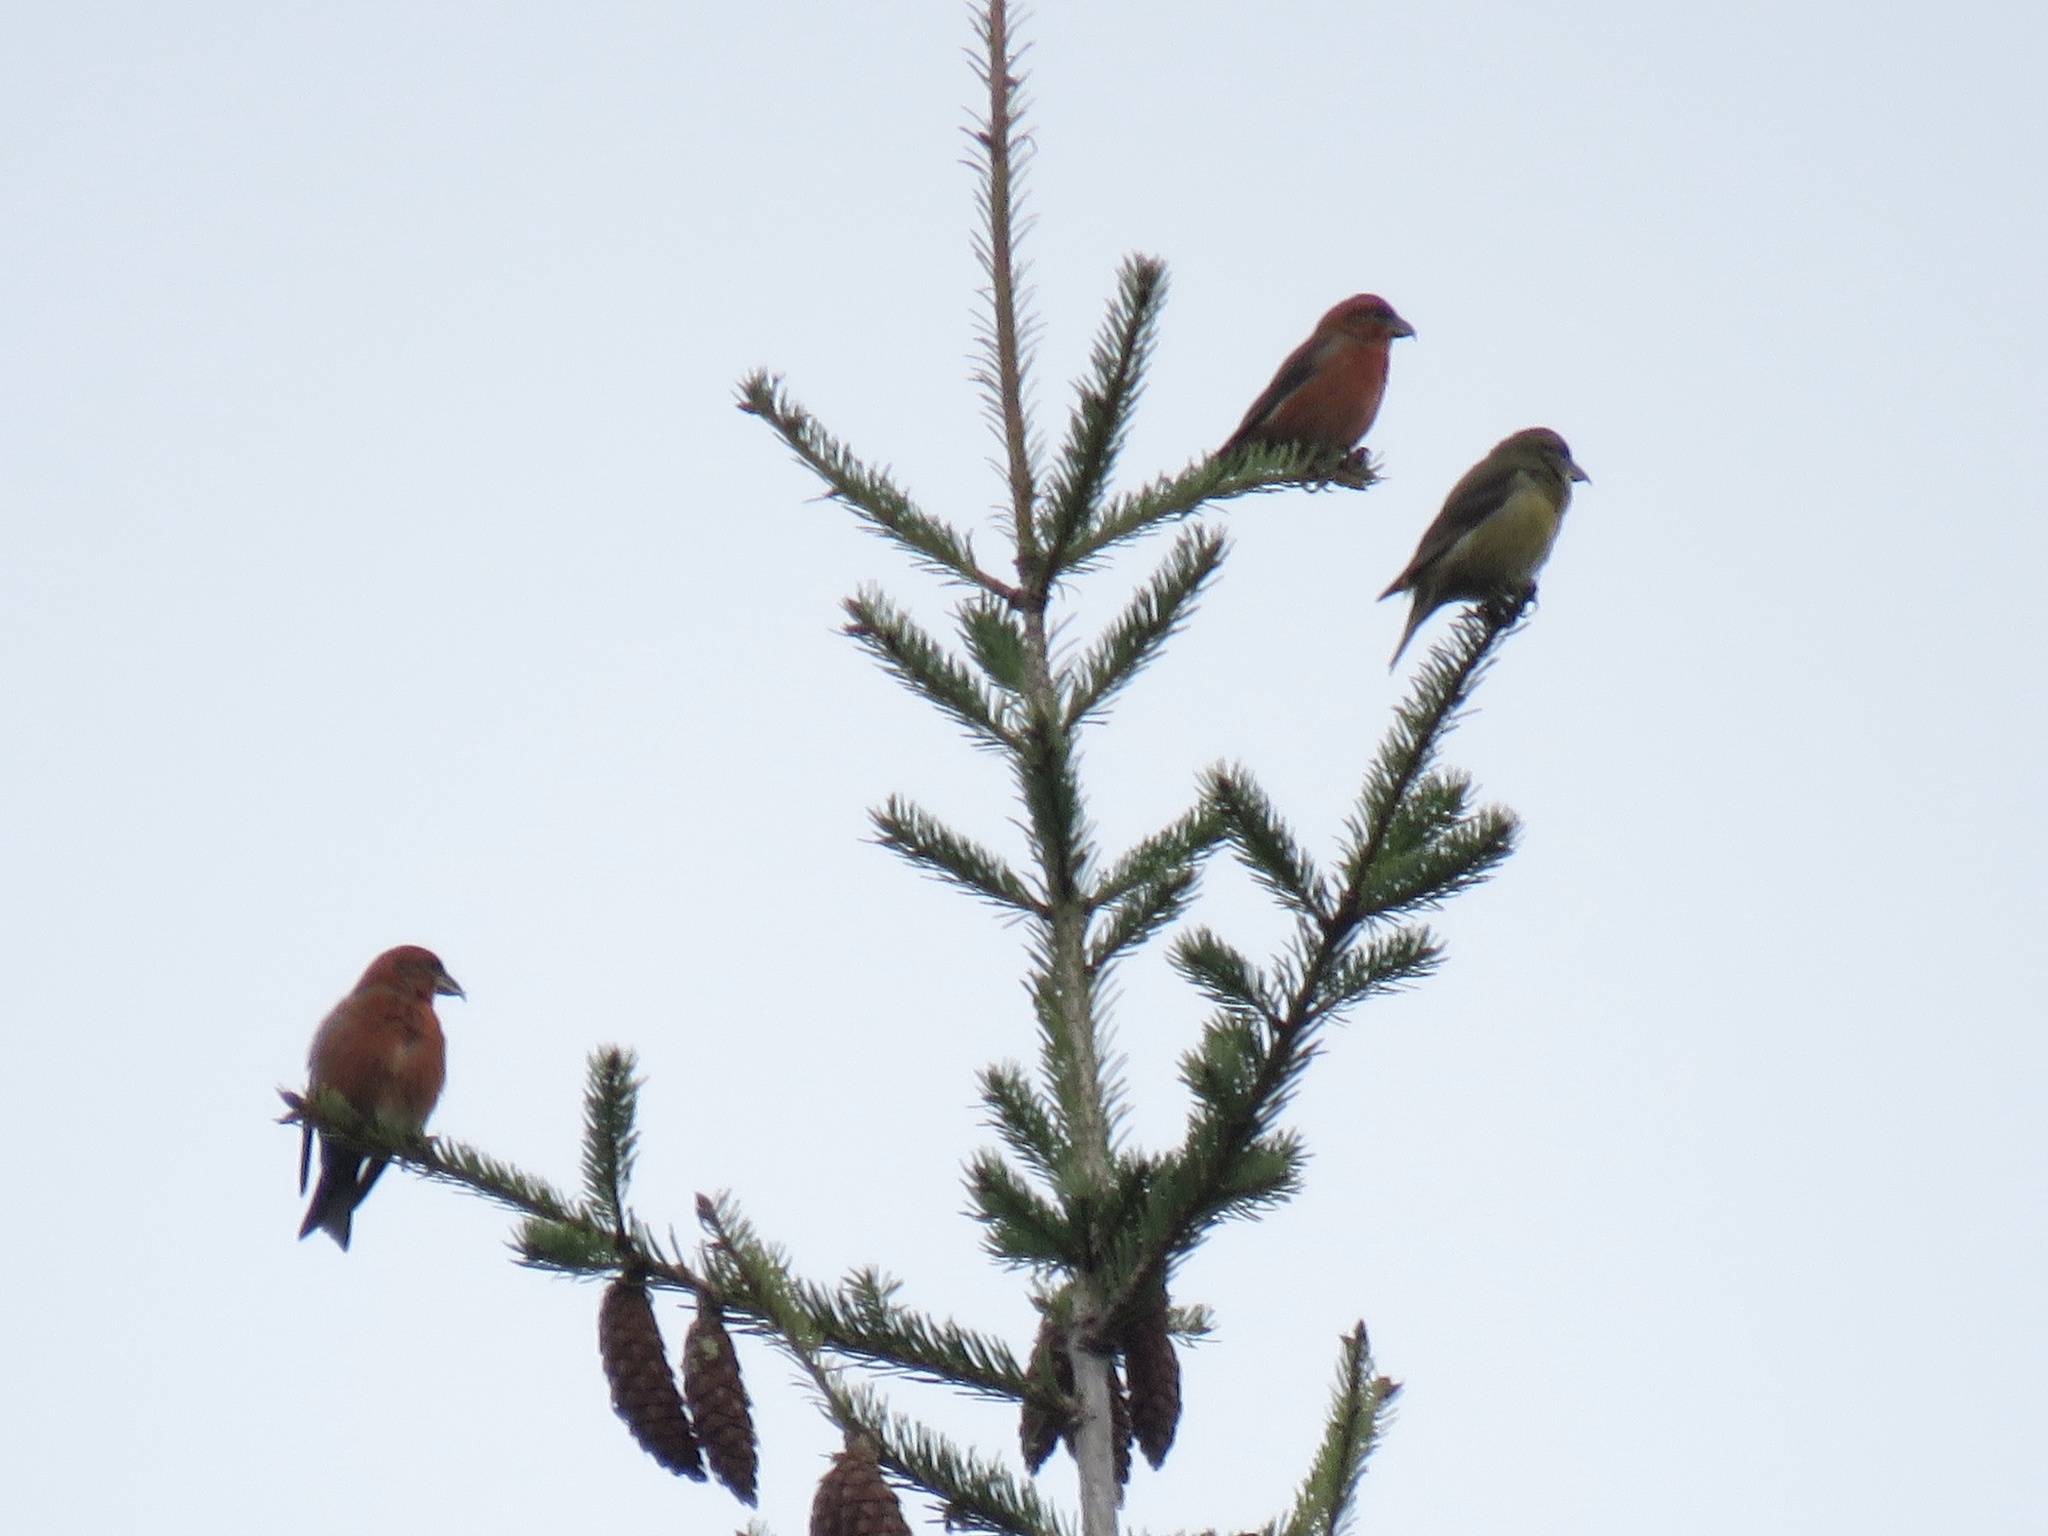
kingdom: Animalia
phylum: Chordata
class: Aves
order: Passeriformes
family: Fringillidae
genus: Loxia
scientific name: Loxia curvirostra
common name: Red crossbill
